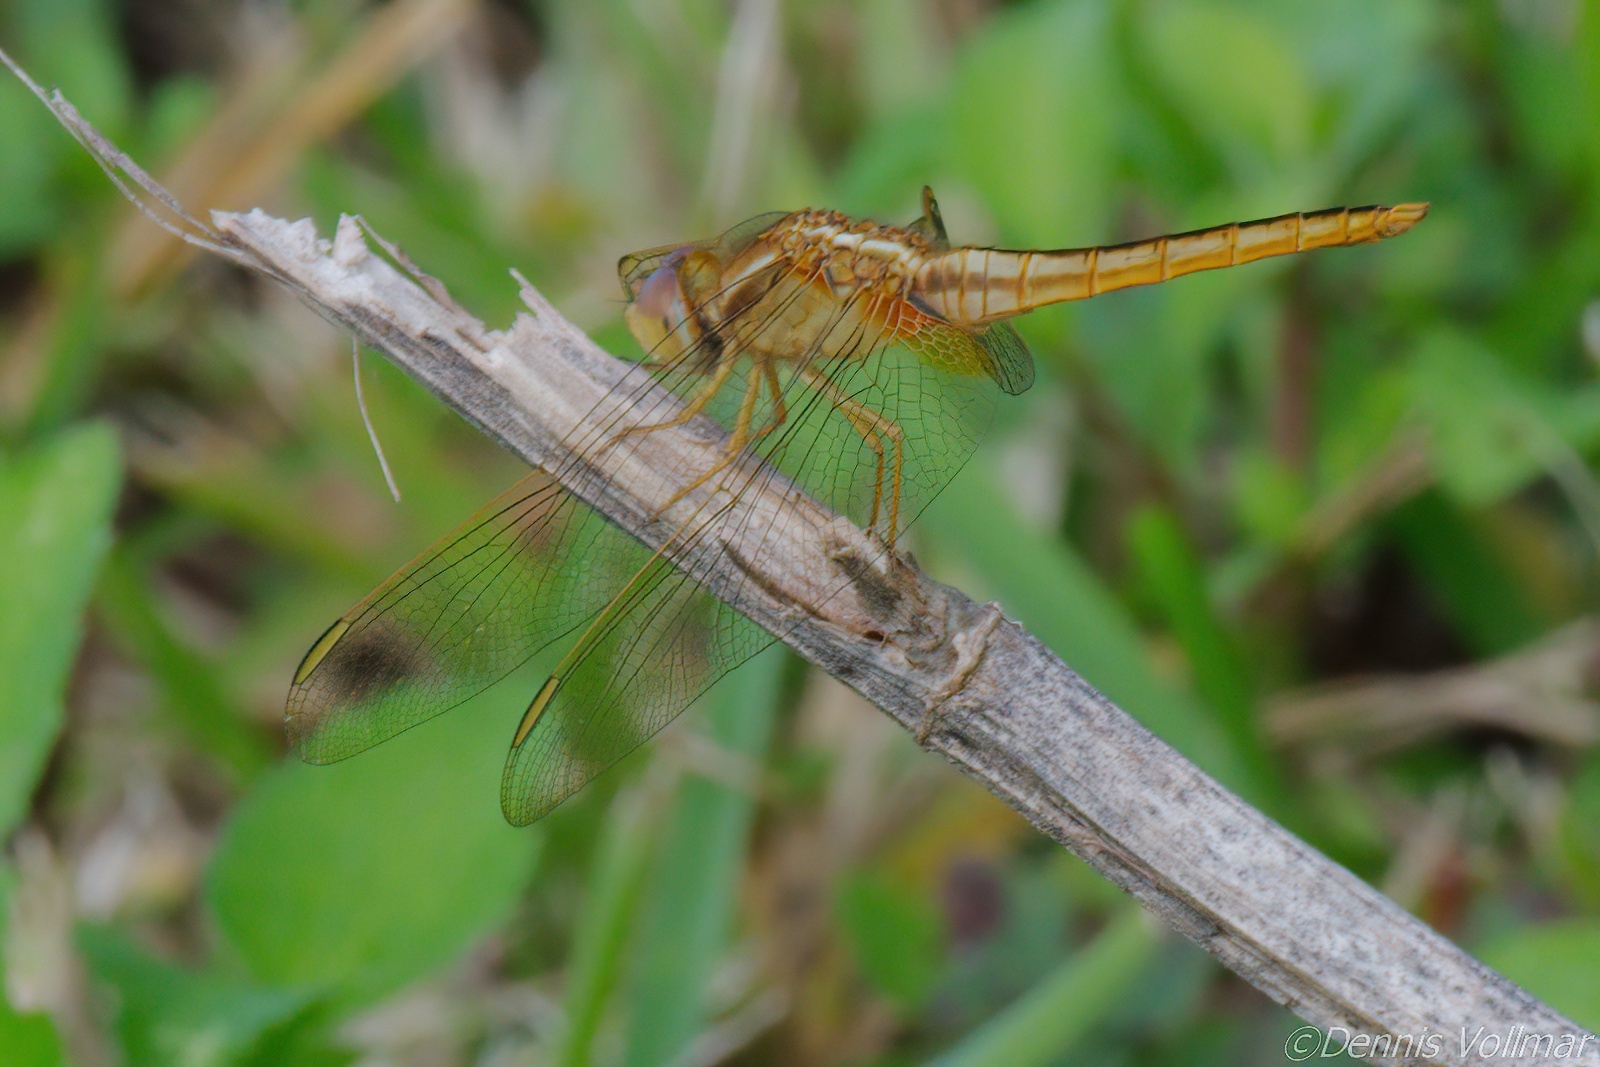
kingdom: Animalia
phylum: Arthropoda
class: Insecta
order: Odonata
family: Libellulidae
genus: Crocothemis
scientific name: Crocothemis servilia
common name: Scarlet skimmer
